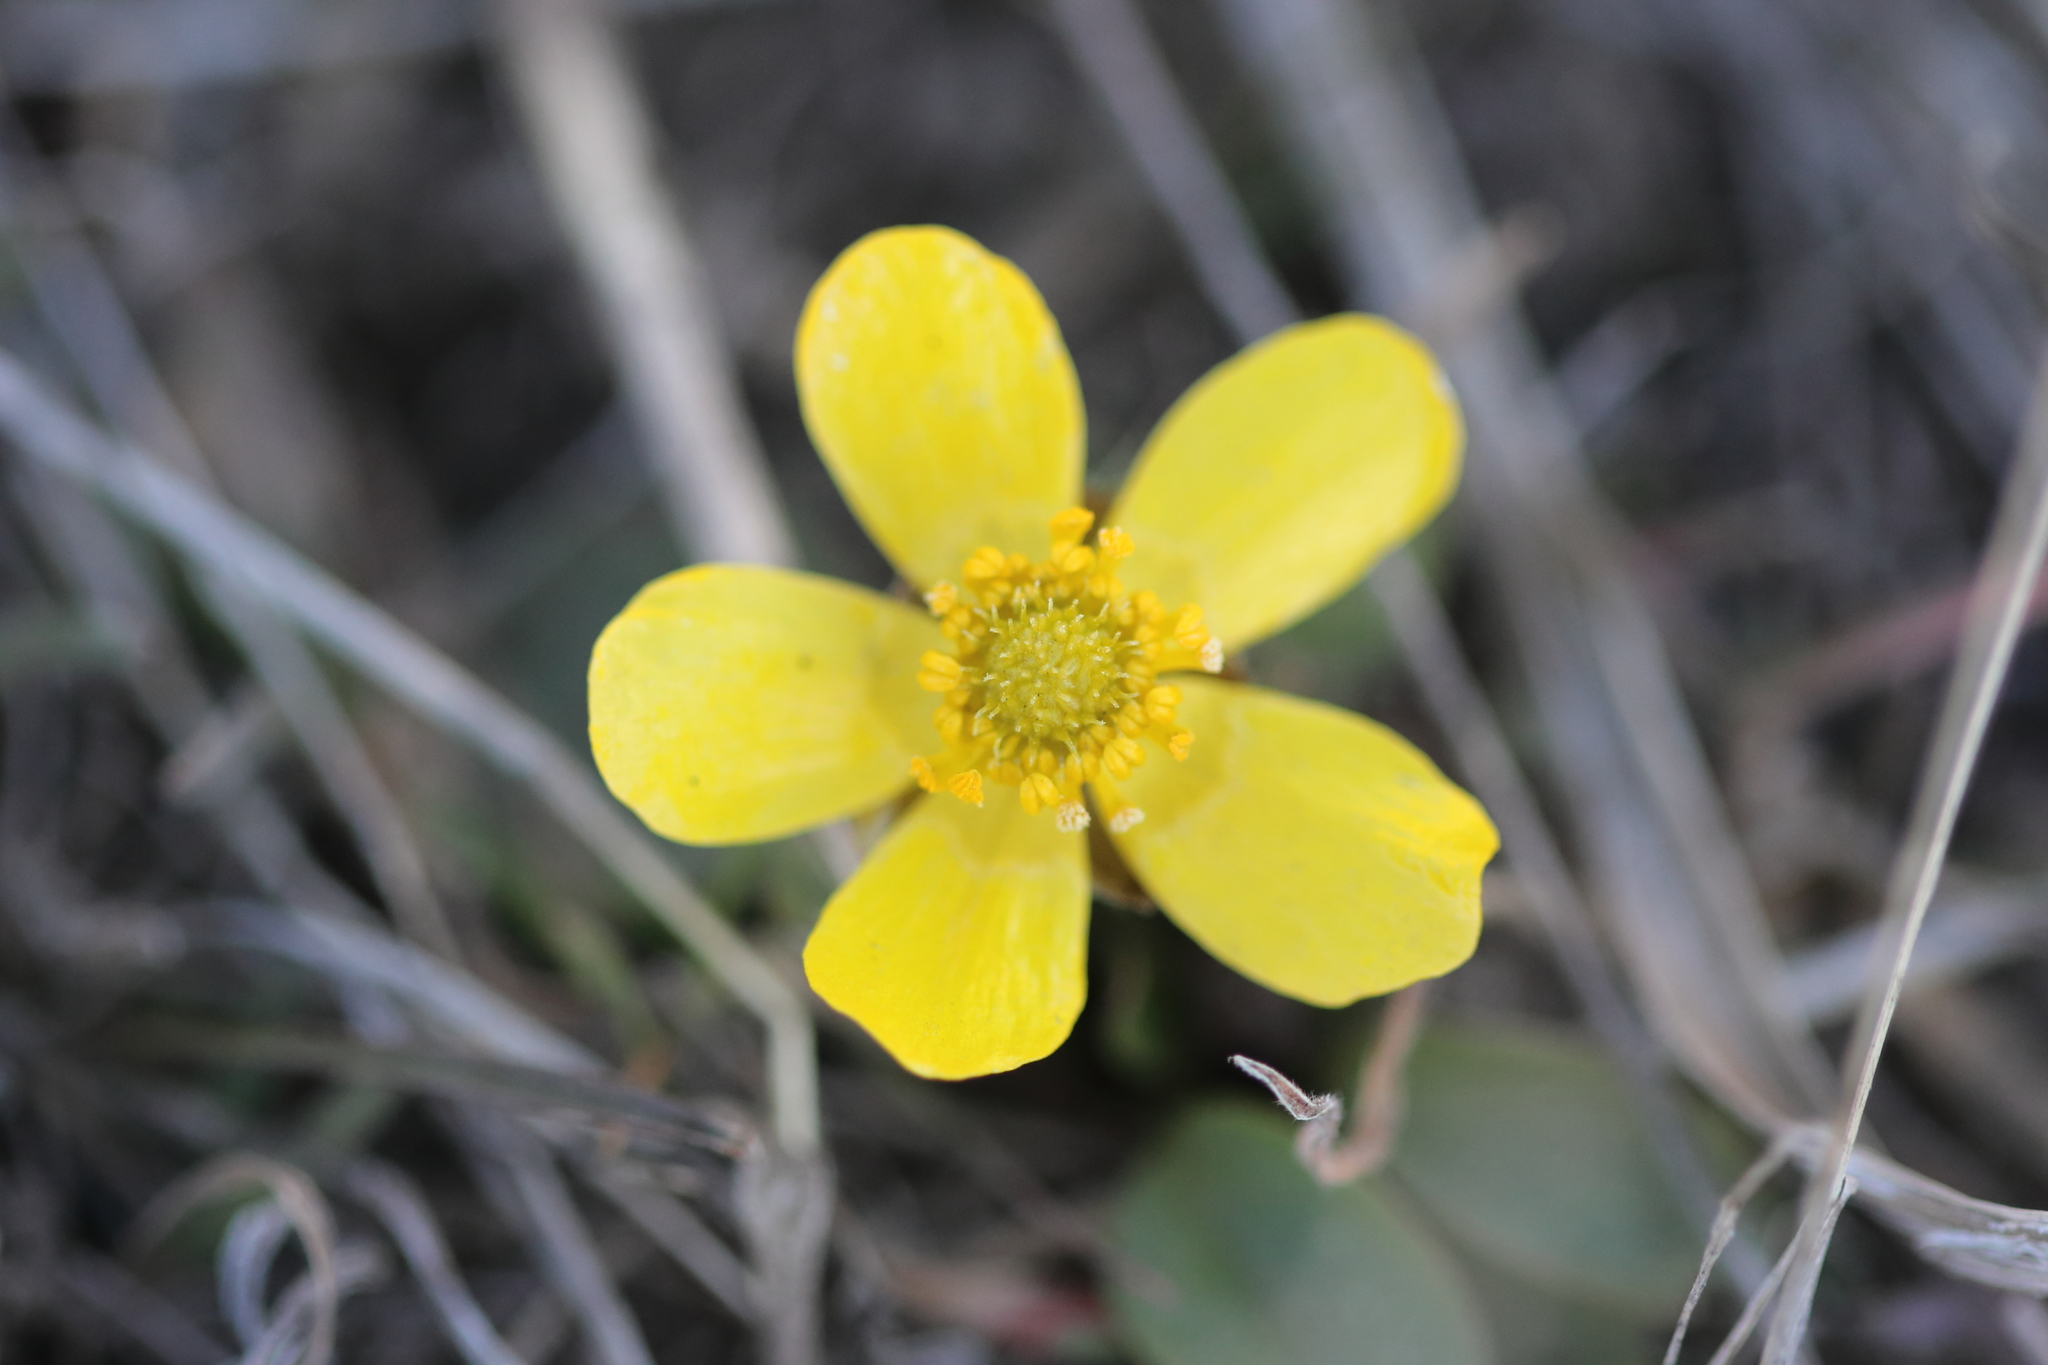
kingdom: Plantae
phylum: Tracheophyta
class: Magnoliopsida
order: Ranunculales
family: Ranunculaceae
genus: Ranunculus
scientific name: Ranunculus glaberrimus
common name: Sagebrush buttercup
